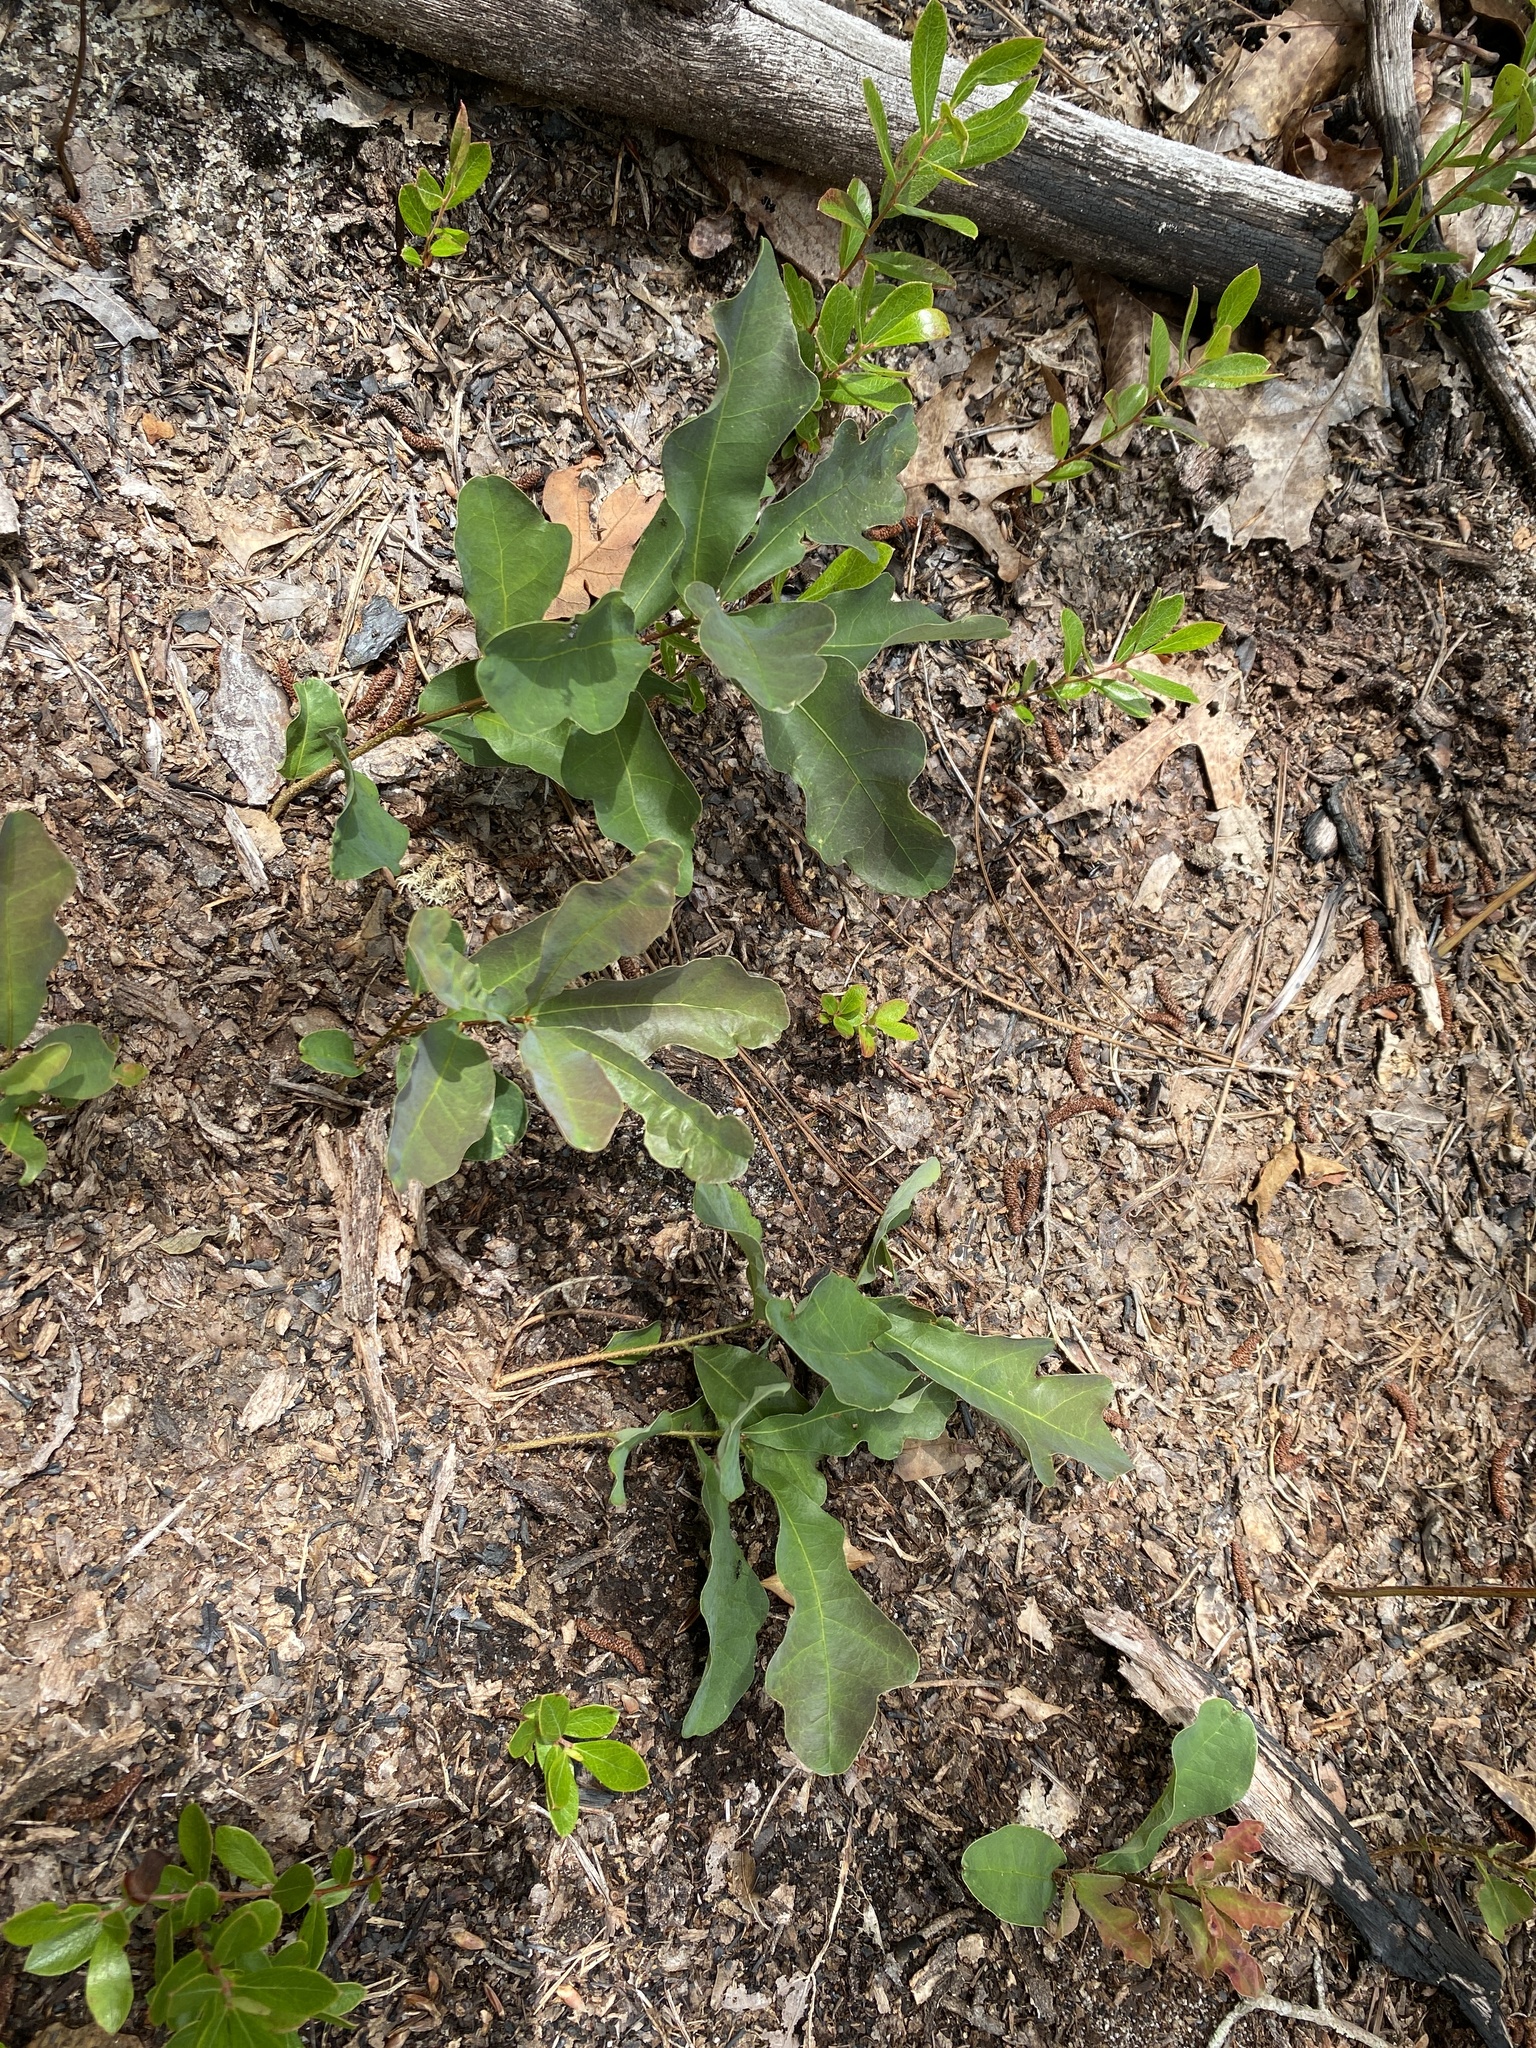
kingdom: Plantae
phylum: Tracheophyta
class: Magnoliopsida
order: Fagales
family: Fagaceae
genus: Quercus
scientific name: Quercus margaretiae
